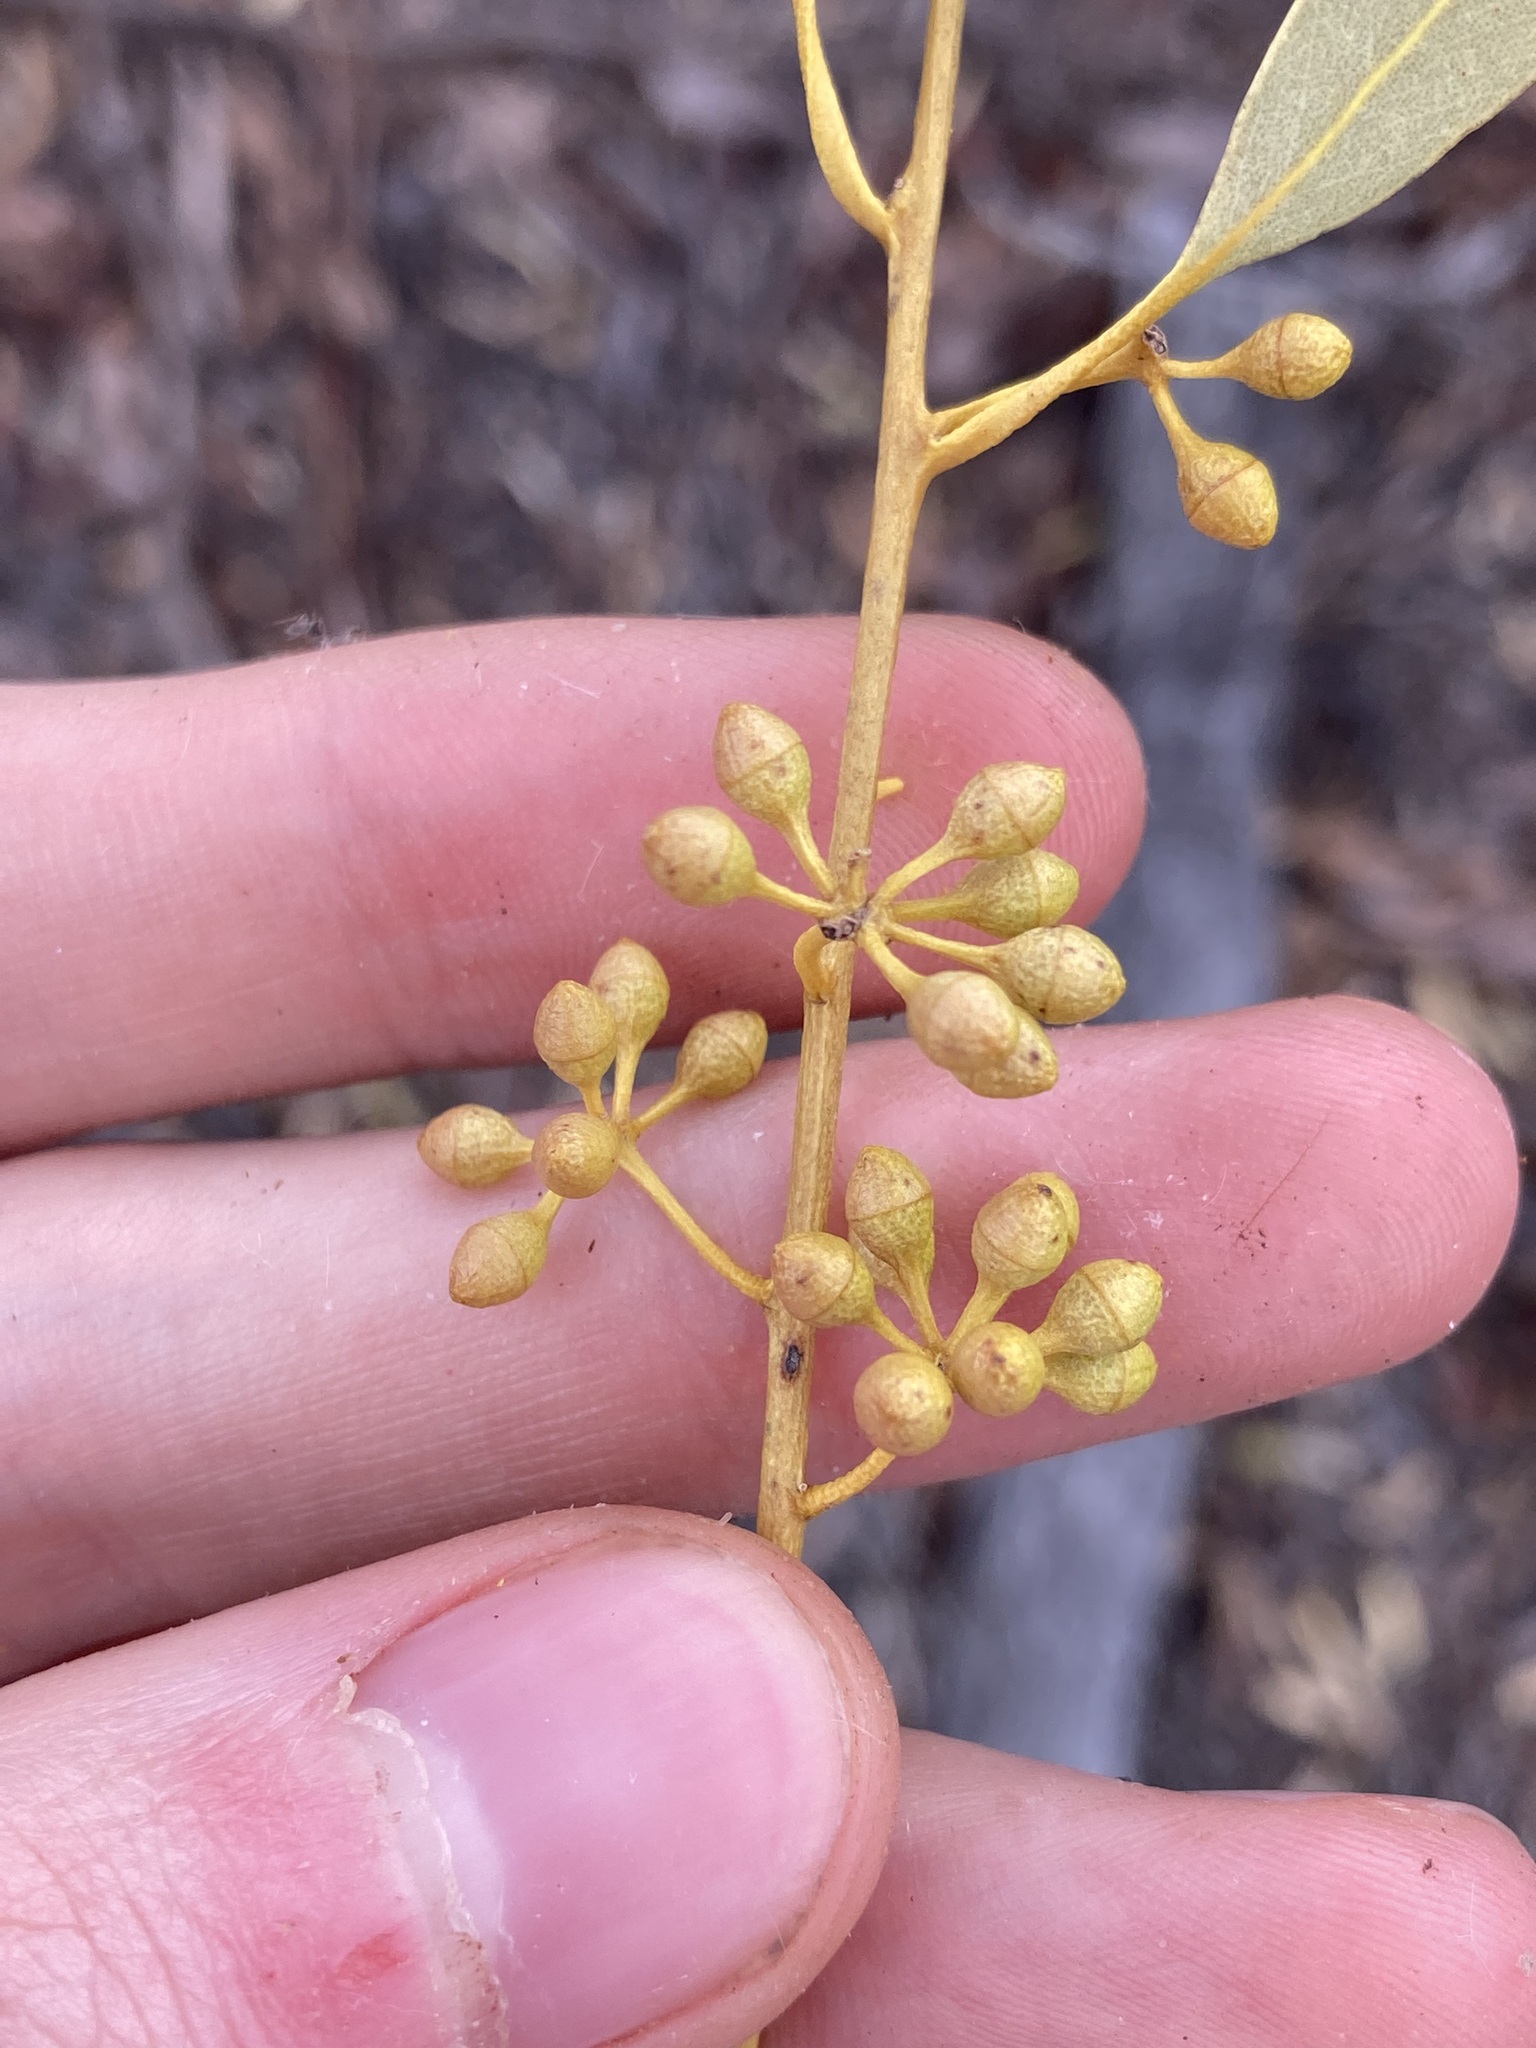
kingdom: Plantae
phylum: Tracheophyta
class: Magnoliopsida
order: Myrtales
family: Myrtaceae
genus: Eucalyptus
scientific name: Eucalyptus salmonophloia
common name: Salmon gum
